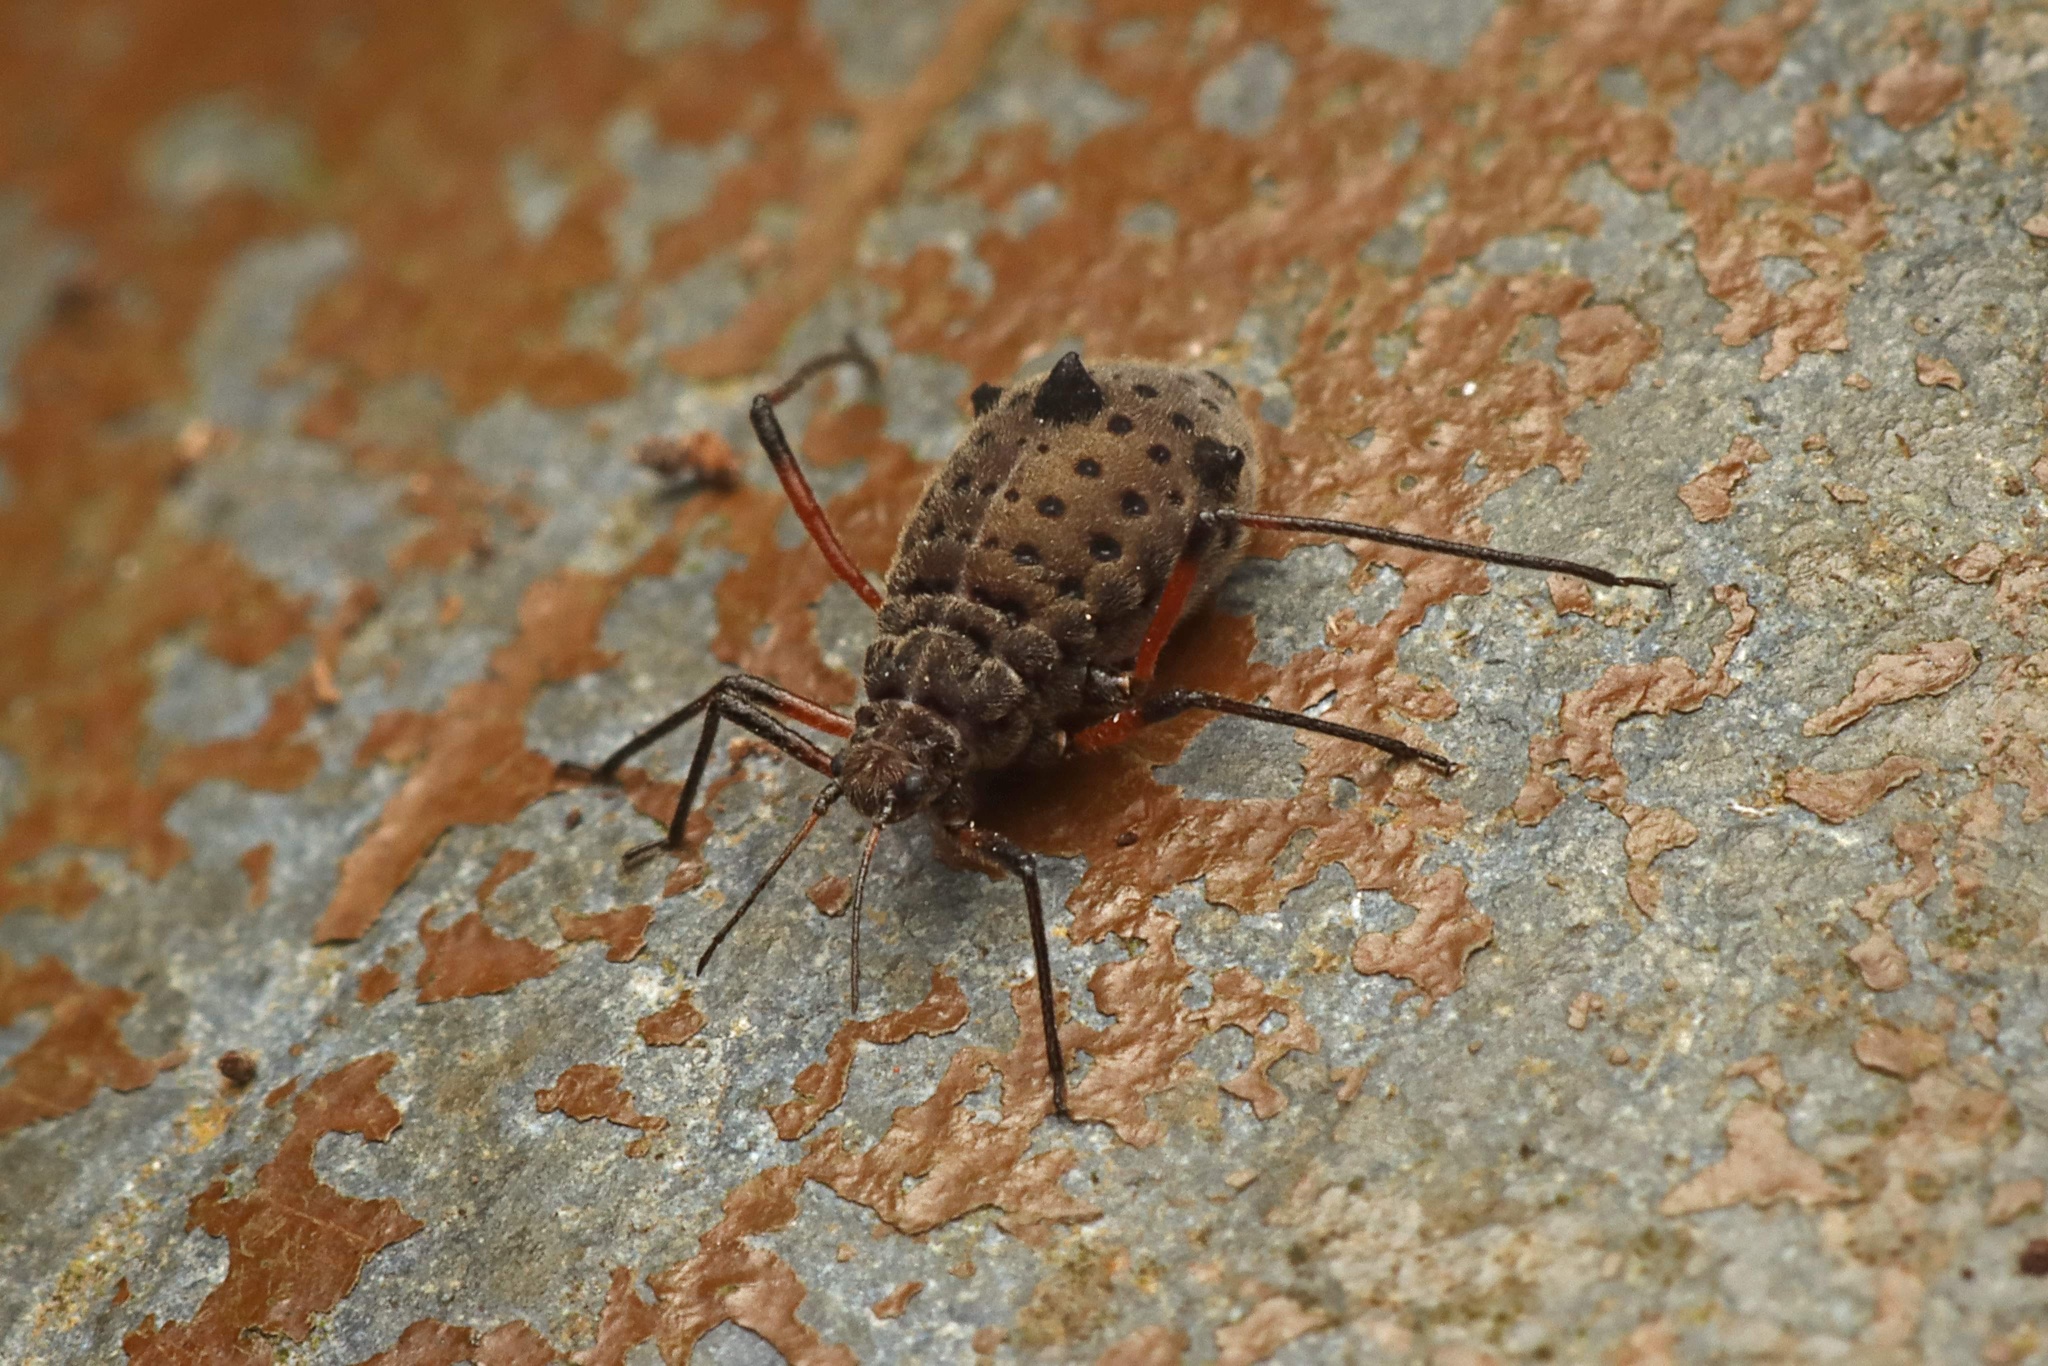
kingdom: Animalia
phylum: Arthropoda
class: Insecta
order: Hemiptera
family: Aphididae
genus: Tuberolachnus
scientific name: Tuberolachnus salignus
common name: Giant willow aphid
